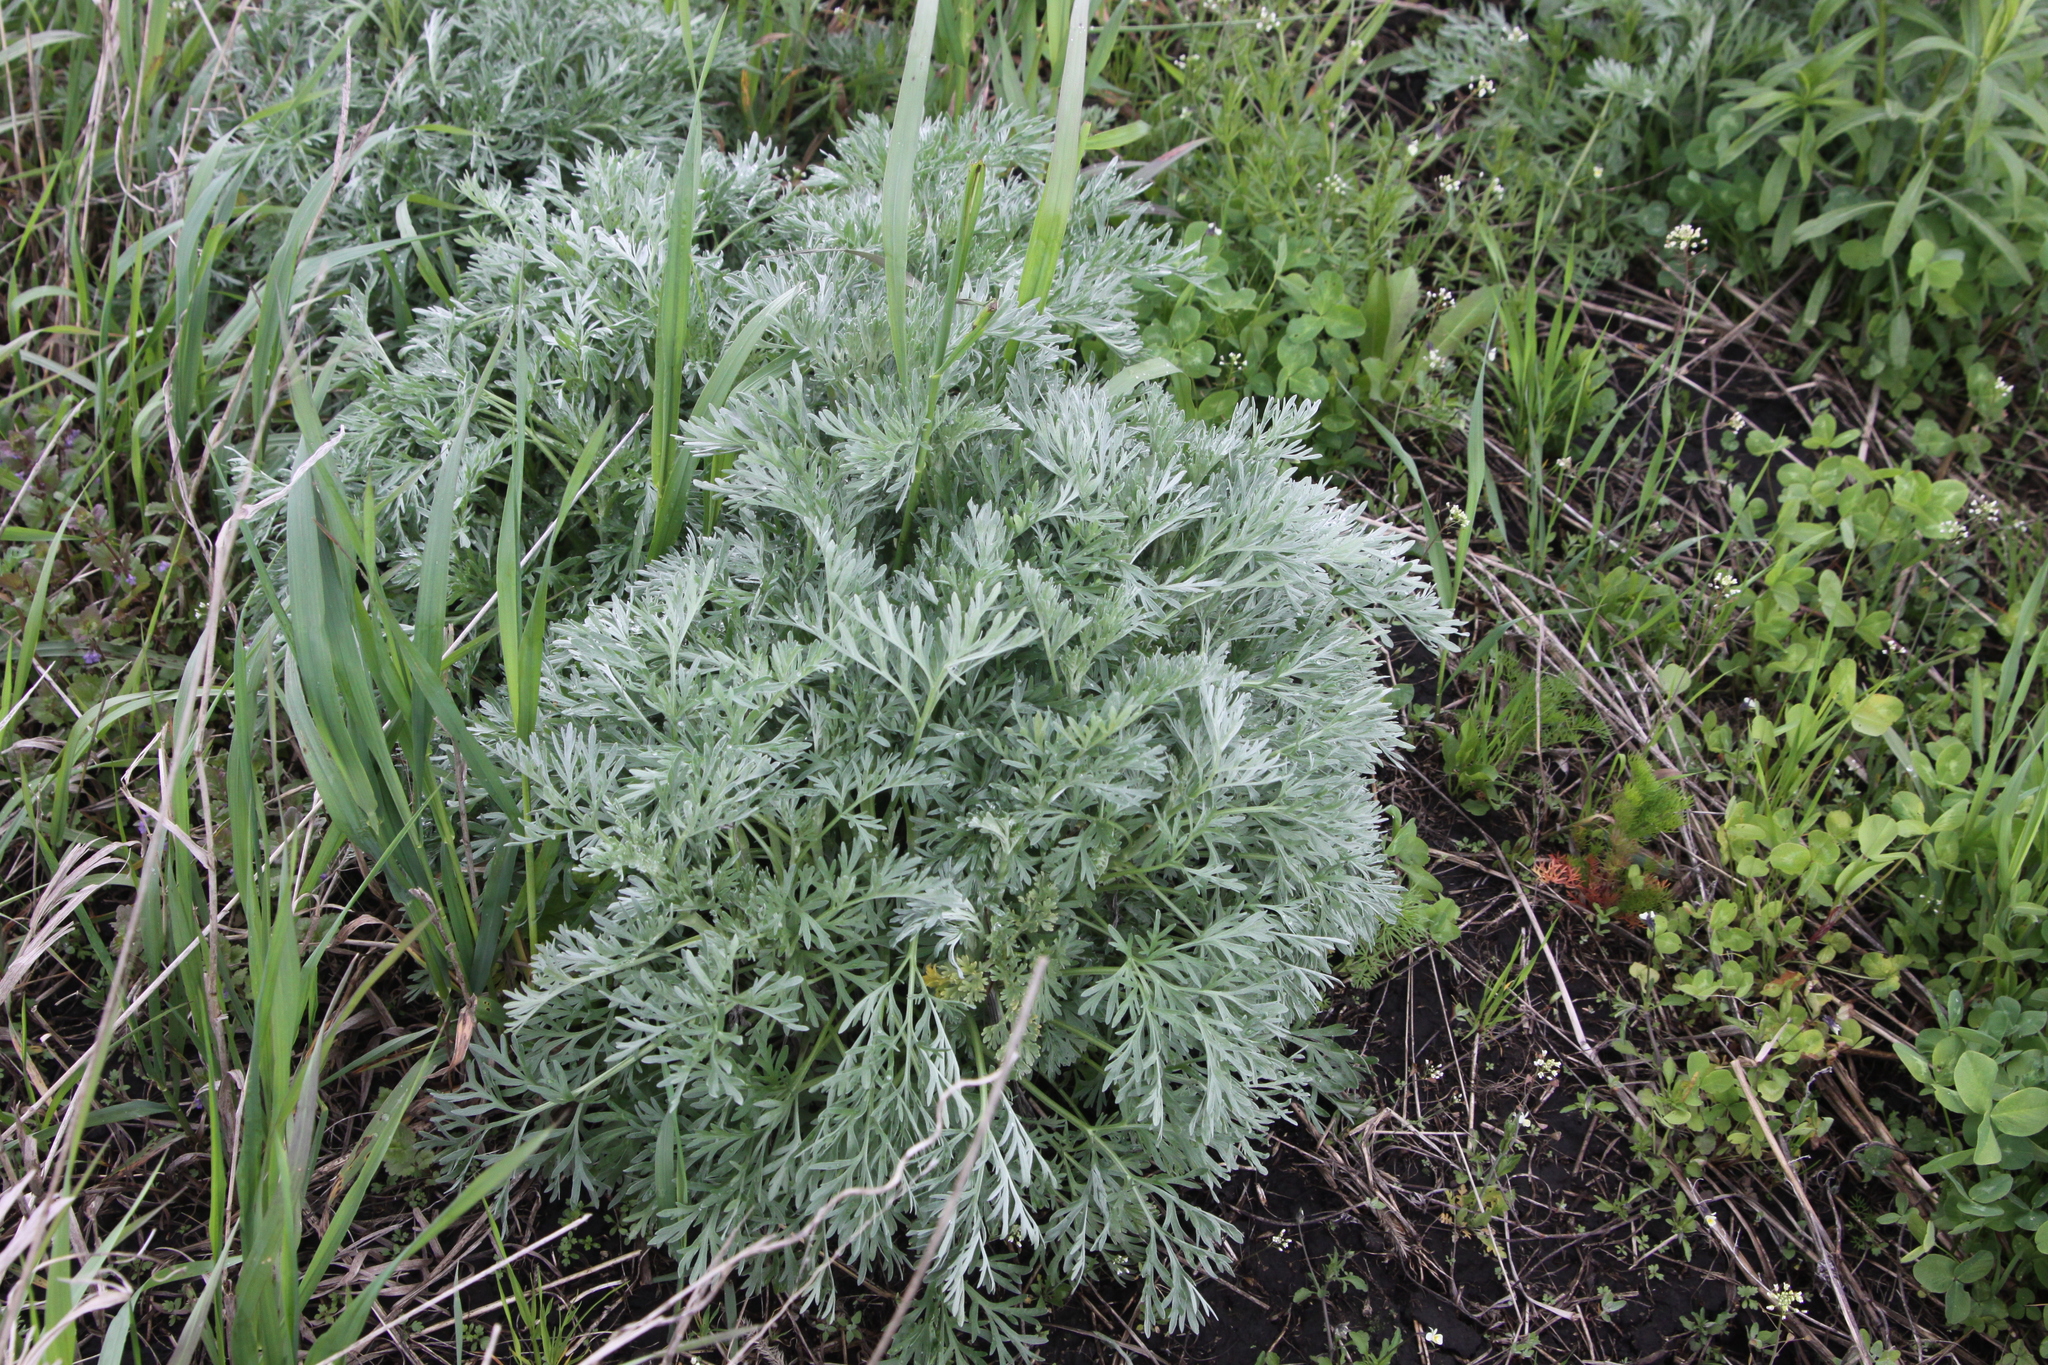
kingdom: Plantae
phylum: Tracheophyta
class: Magnoliopsida
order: Asterales
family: Asteraceae
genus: Artemisia
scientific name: Artemisia absinthium
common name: Wormwood
